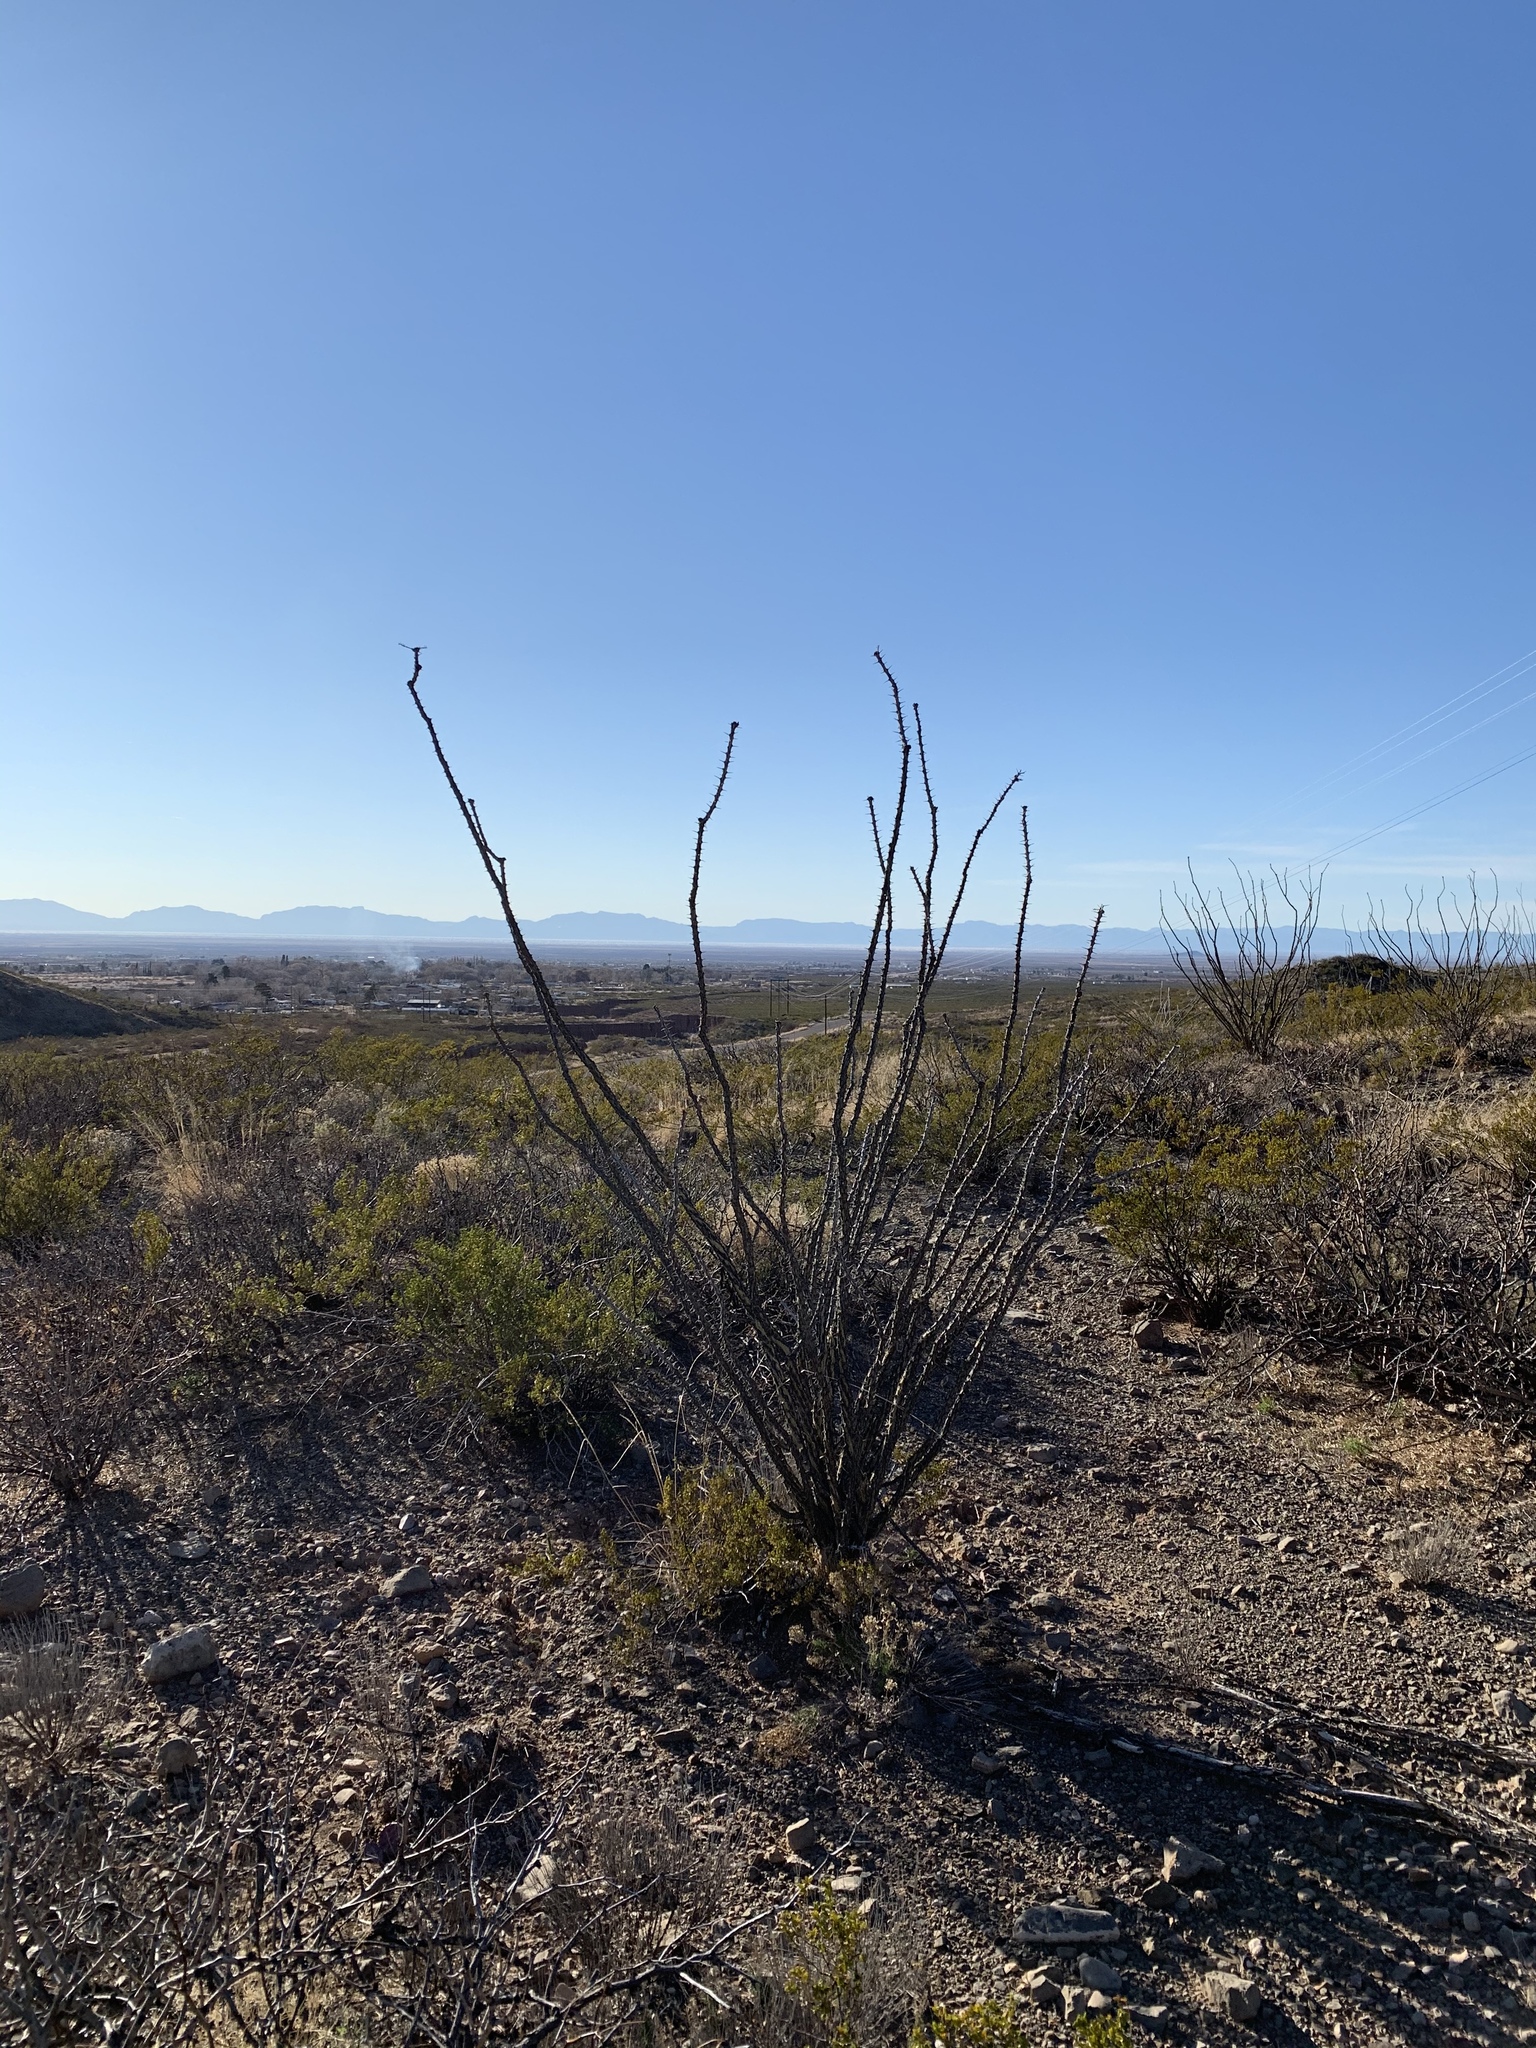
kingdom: Plantae
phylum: Tracheophyta
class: Magnoliopsida
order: Ericales
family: Fouquieriaceae
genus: Fouquieria
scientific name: Fouquieria splendens
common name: Vine-cactus
